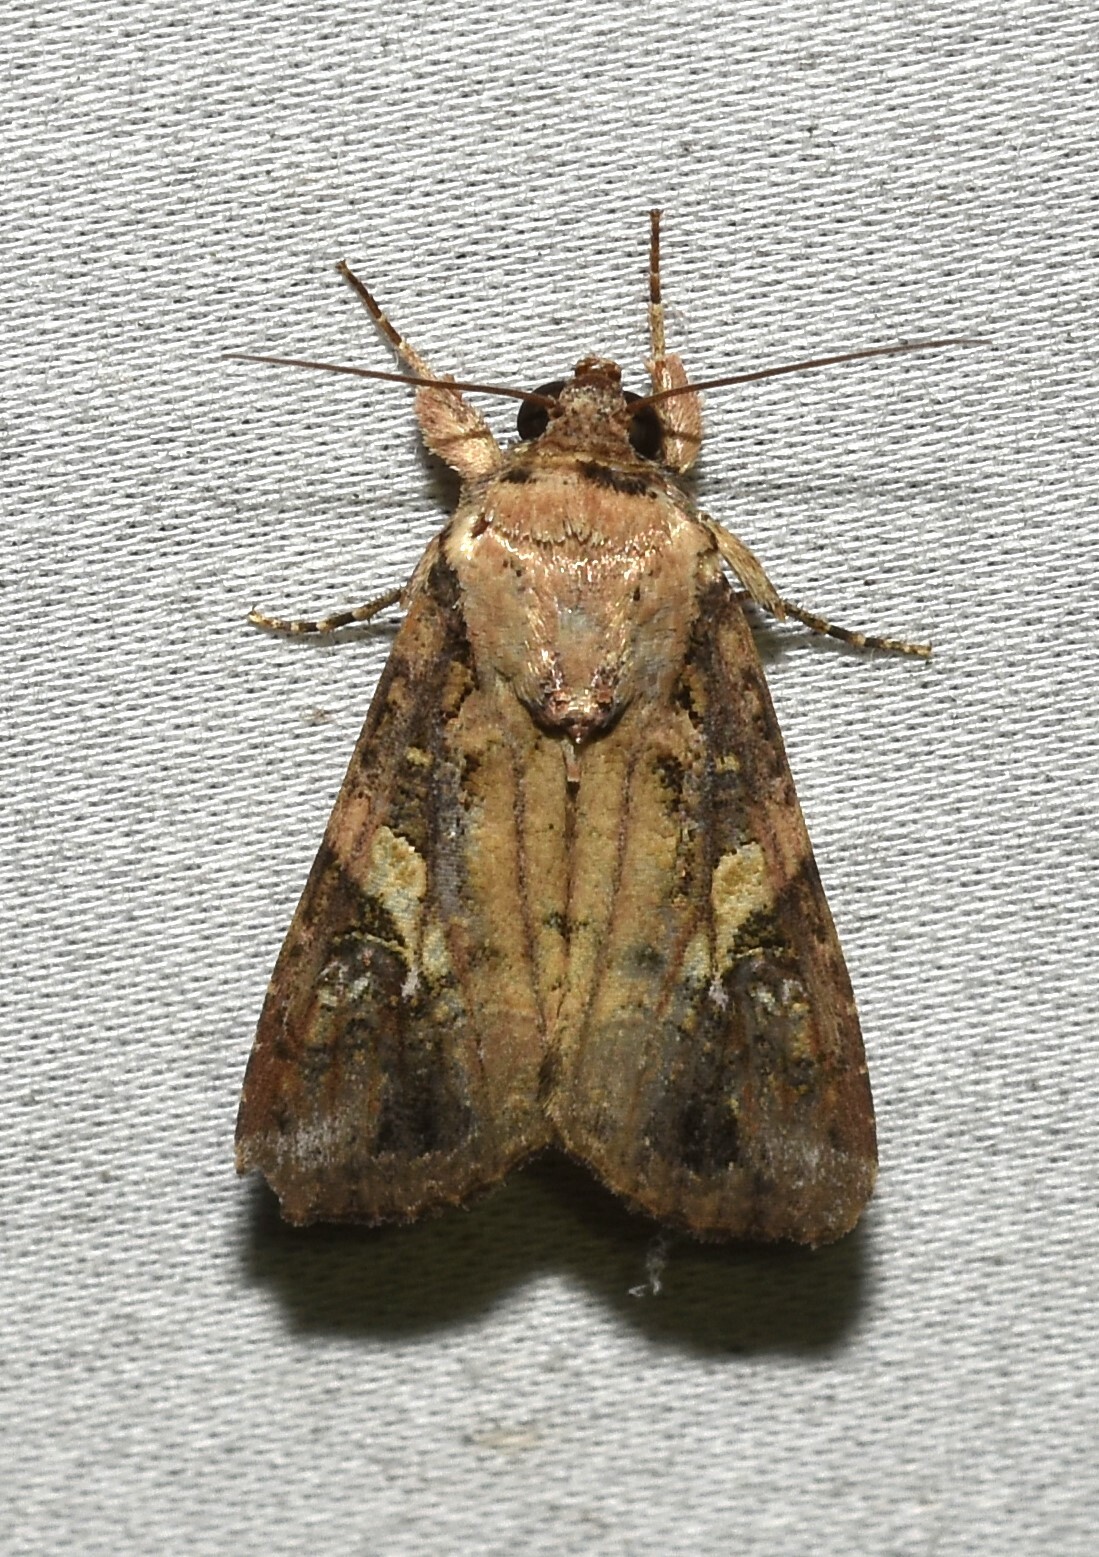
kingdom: Animalia
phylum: Arthropoda
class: Insecta
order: Lepidoptera
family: Noctuidae
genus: Spodoptera
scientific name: Spodoptera frugiperda
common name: Fall armyworm
